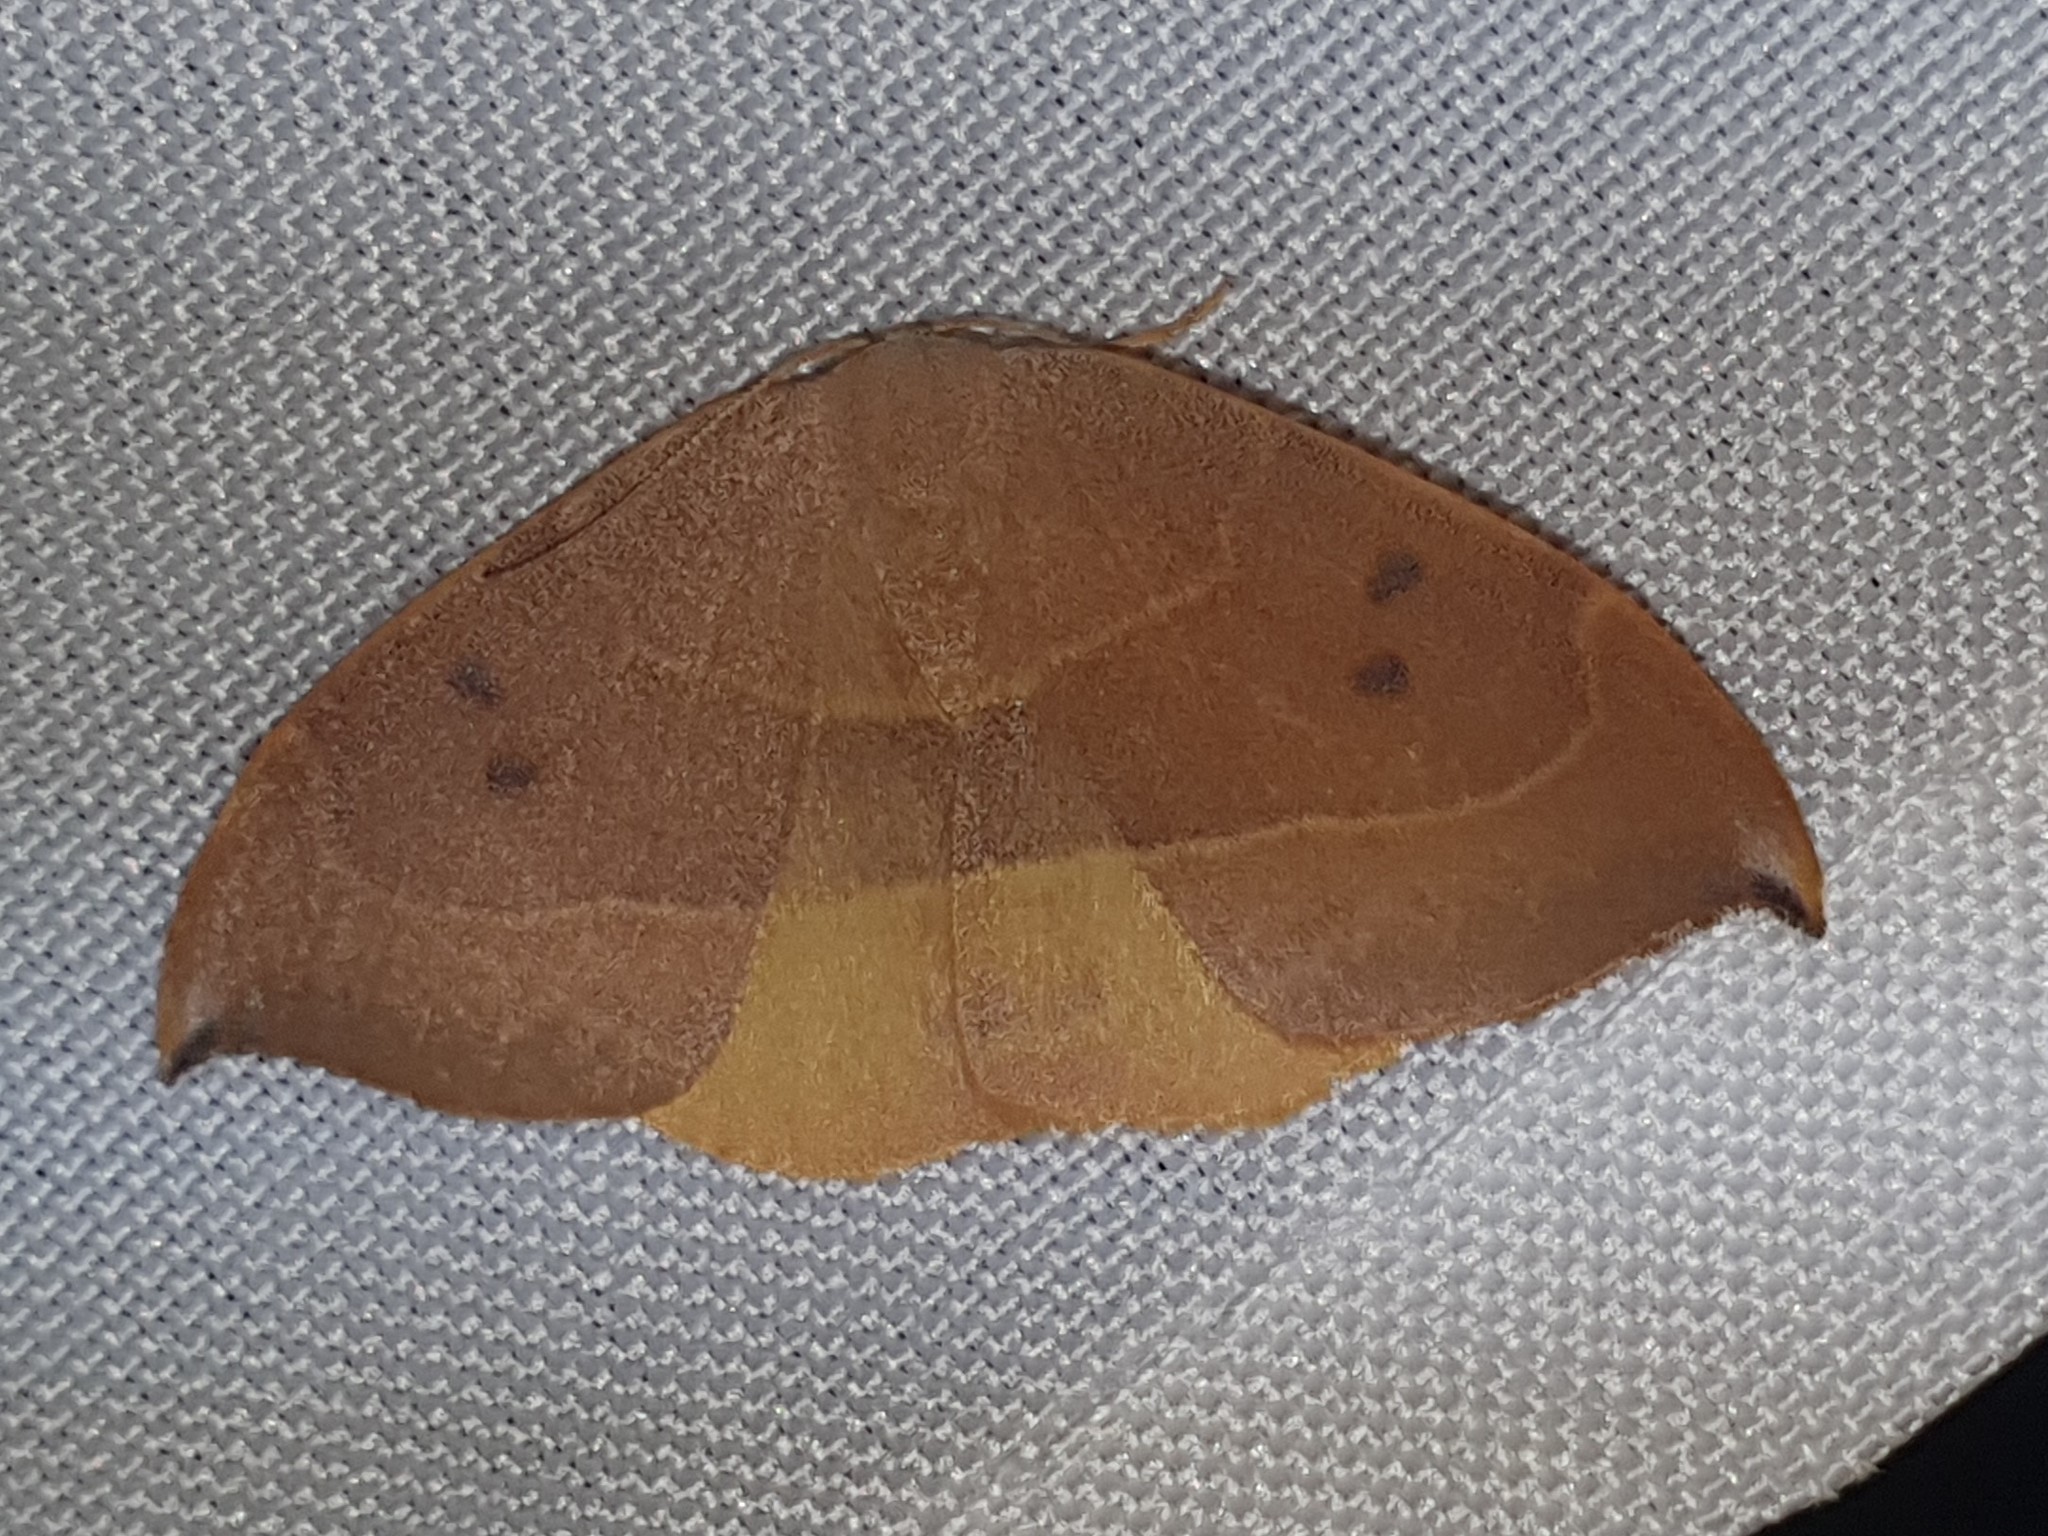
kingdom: Animalia
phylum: Arthropoda
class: Insecta
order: Lepidoptera
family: Drepanidae
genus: Watsonalla
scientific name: Watsonalla uncinula
